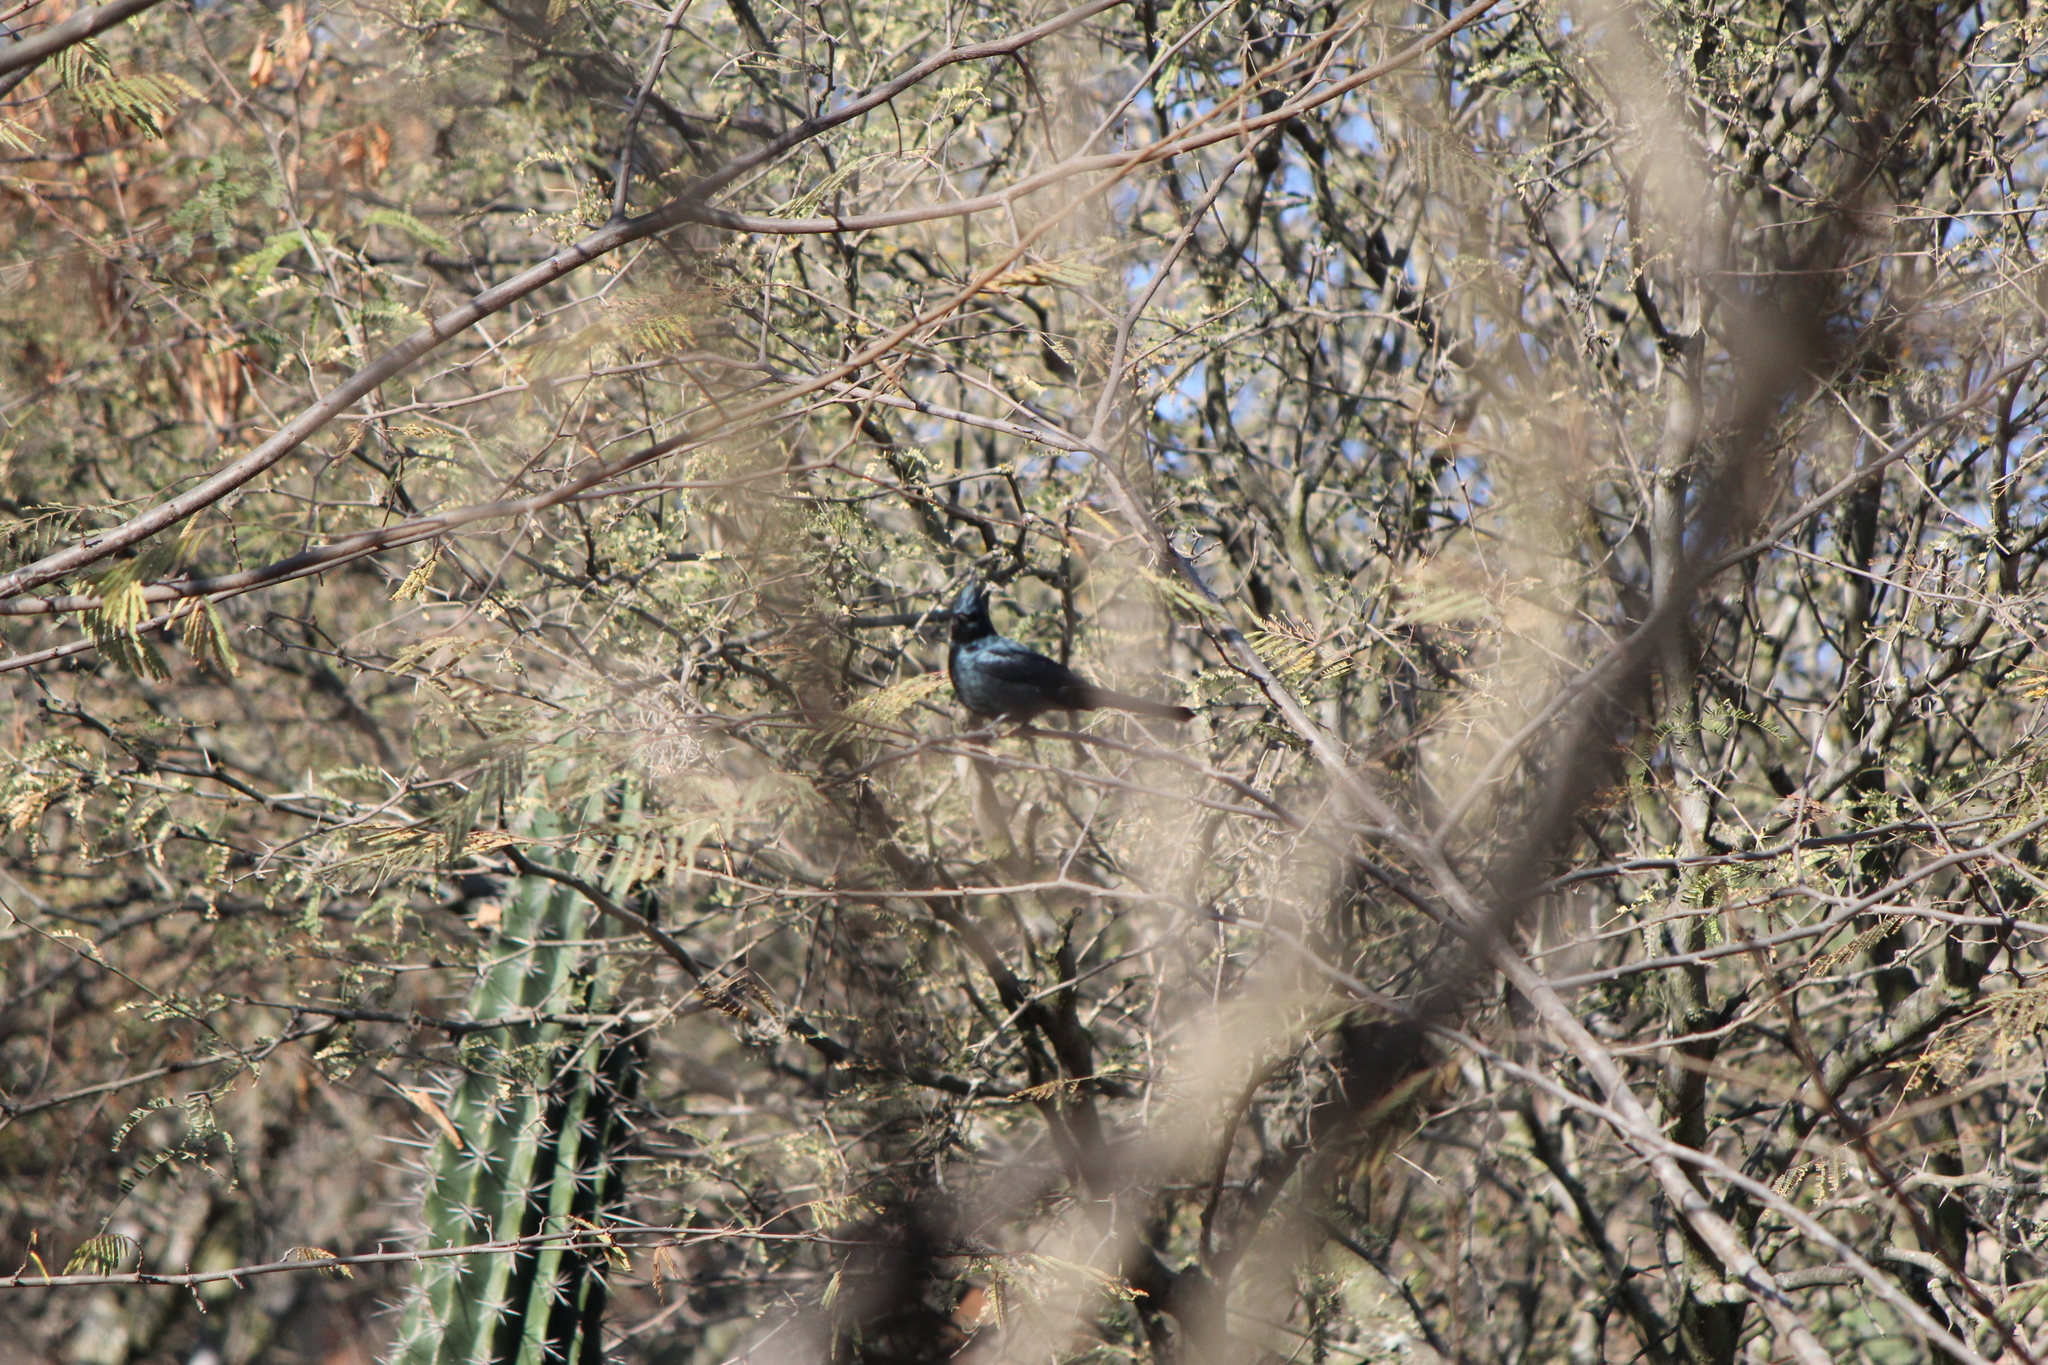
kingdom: Animalia
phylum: Chordata
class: Aves
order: Passeriformes
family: Ptilogonatidae
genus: Phainopepla
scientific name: Phainopepla nitens
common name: Phainopepla
